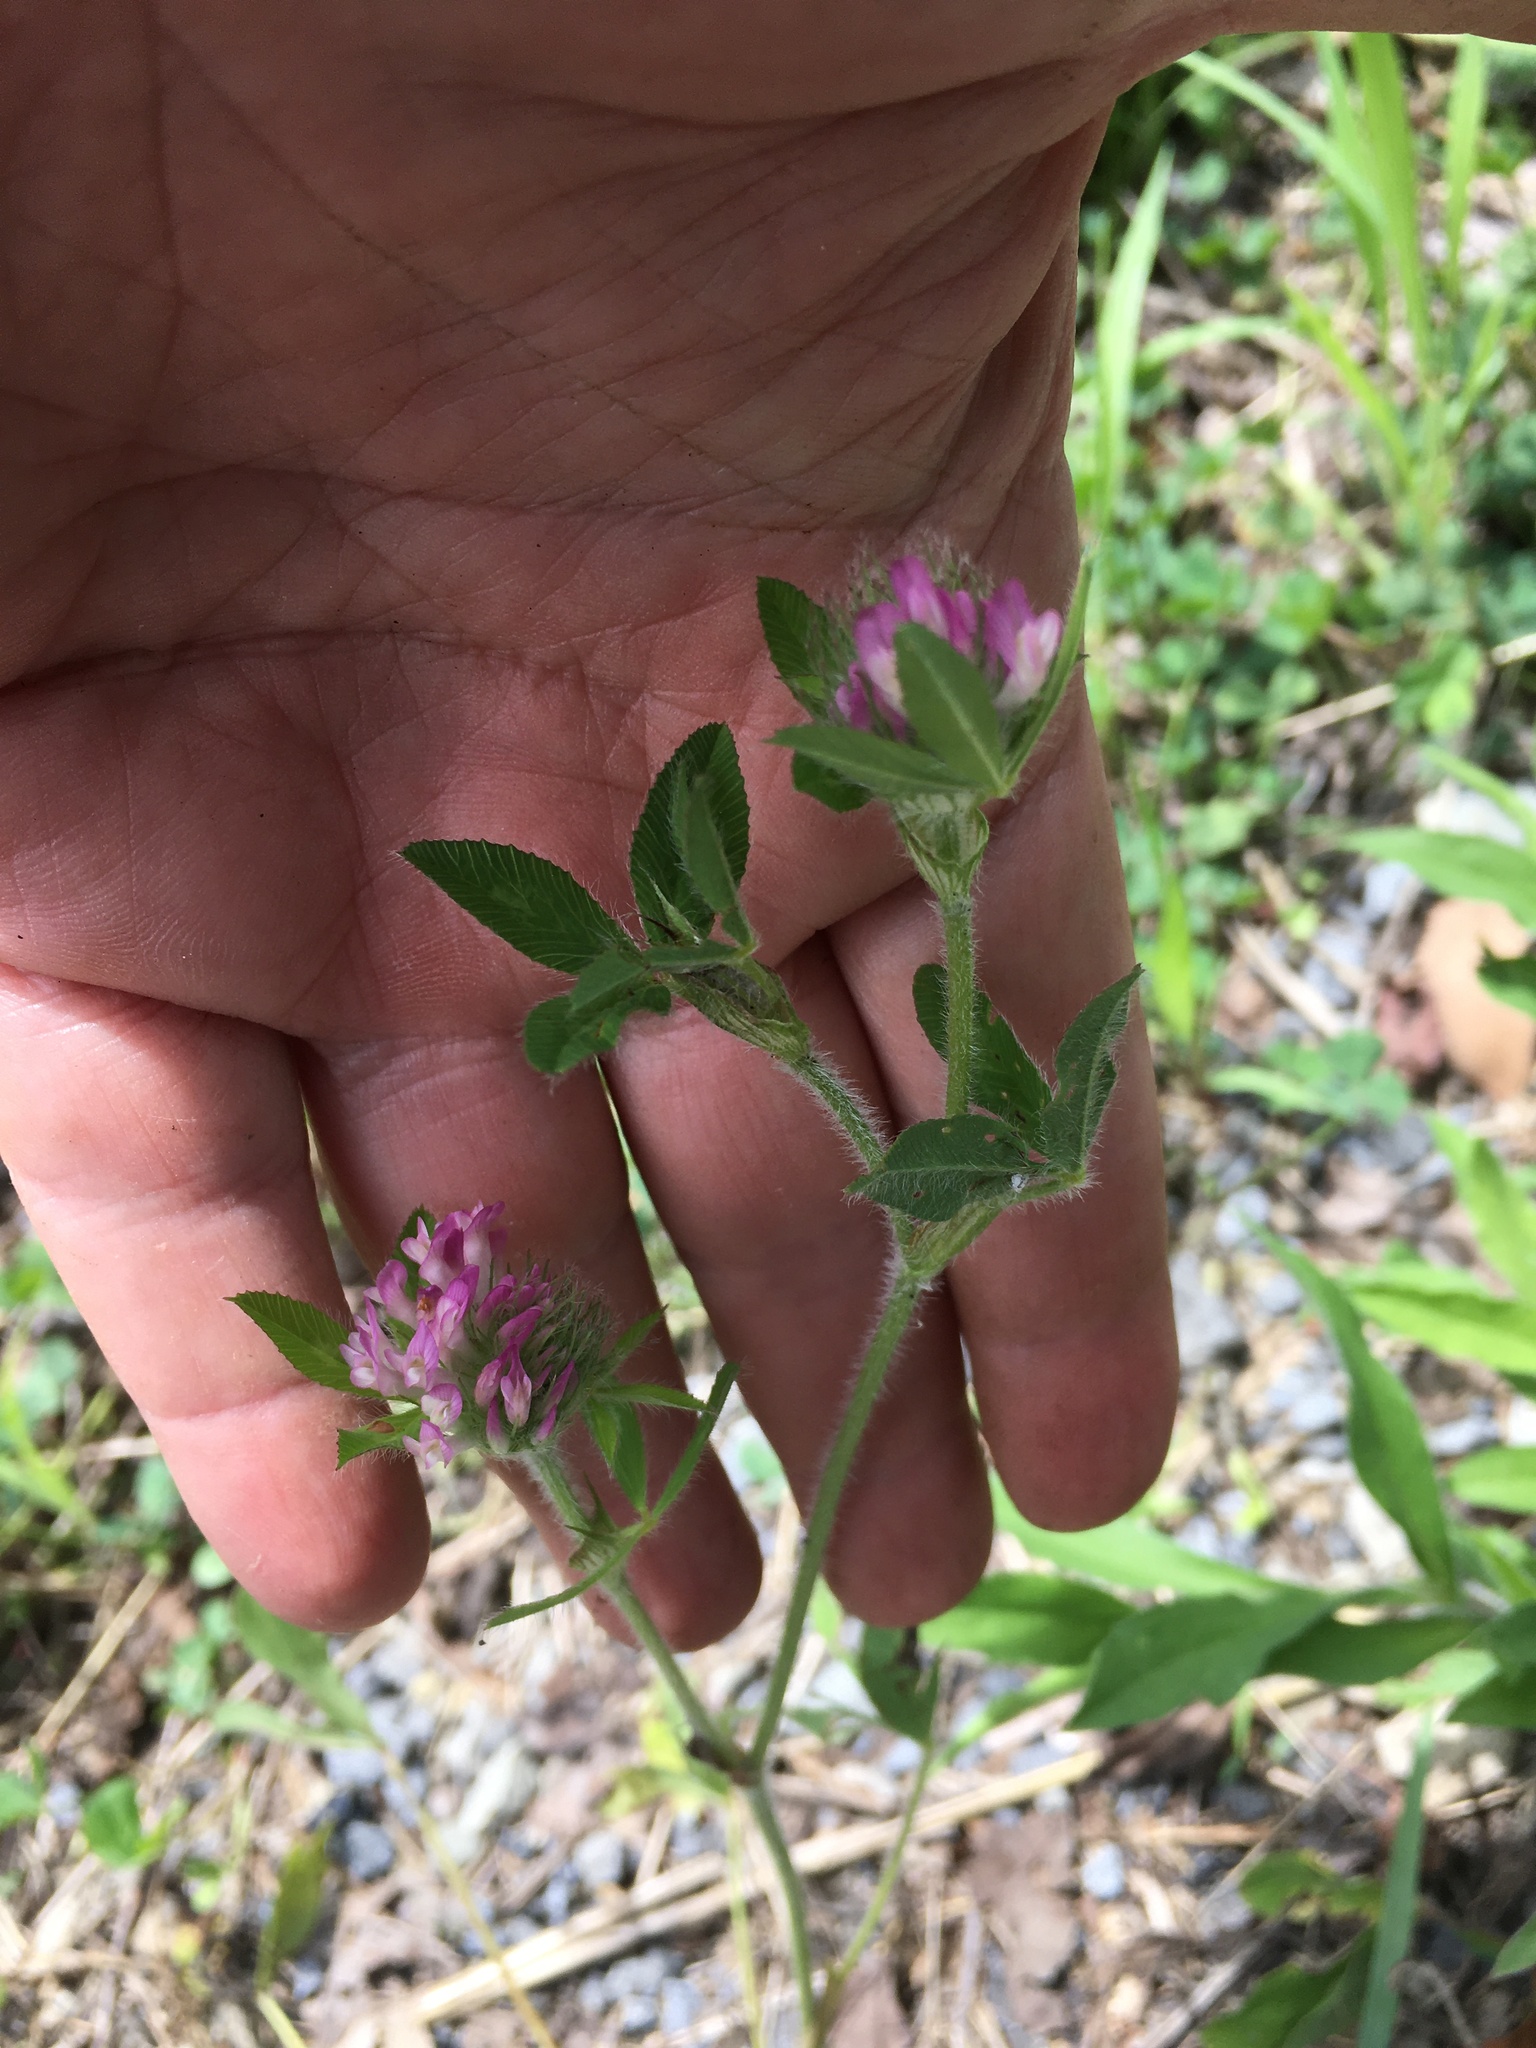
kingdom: Plantae
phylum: Tracheophyta
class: Magnoliopsida
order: Fabales
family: Fabaceae
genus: Trifolium
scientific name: Trifolium pratense
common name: Red clover
